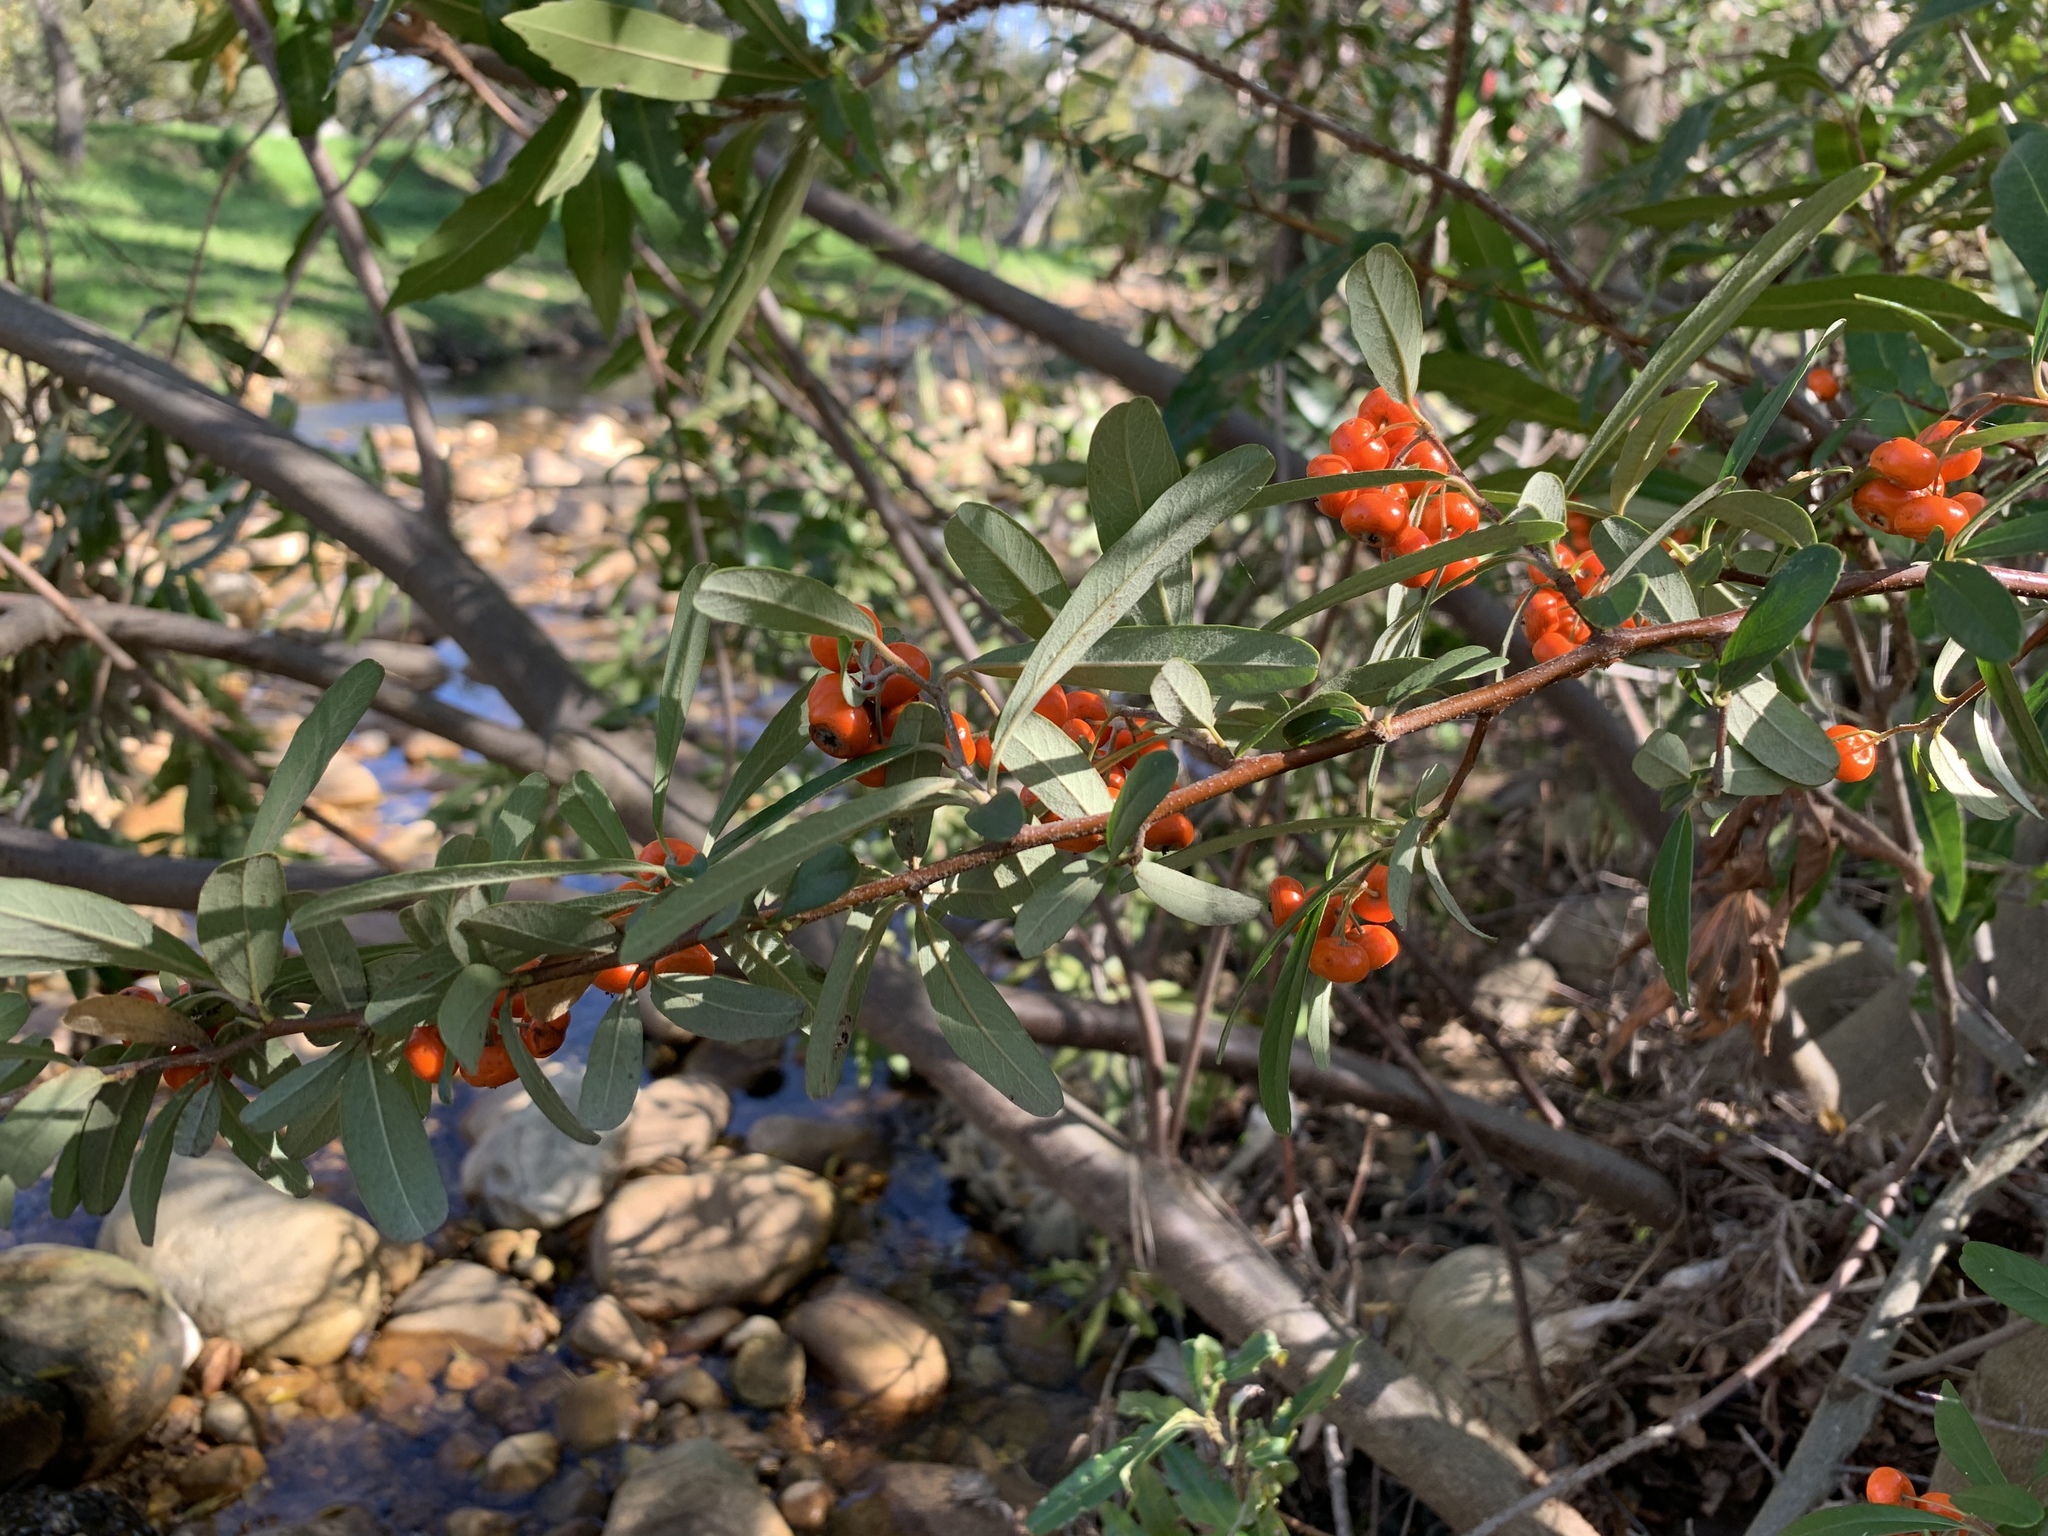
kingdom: Plantae
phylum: Tracheophyta
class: Magnoliopsida
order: Rosales
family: Rosaceae
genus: Pyracantha
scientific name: Pyracantha angustifolia
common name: Narrowleaf firethorn
